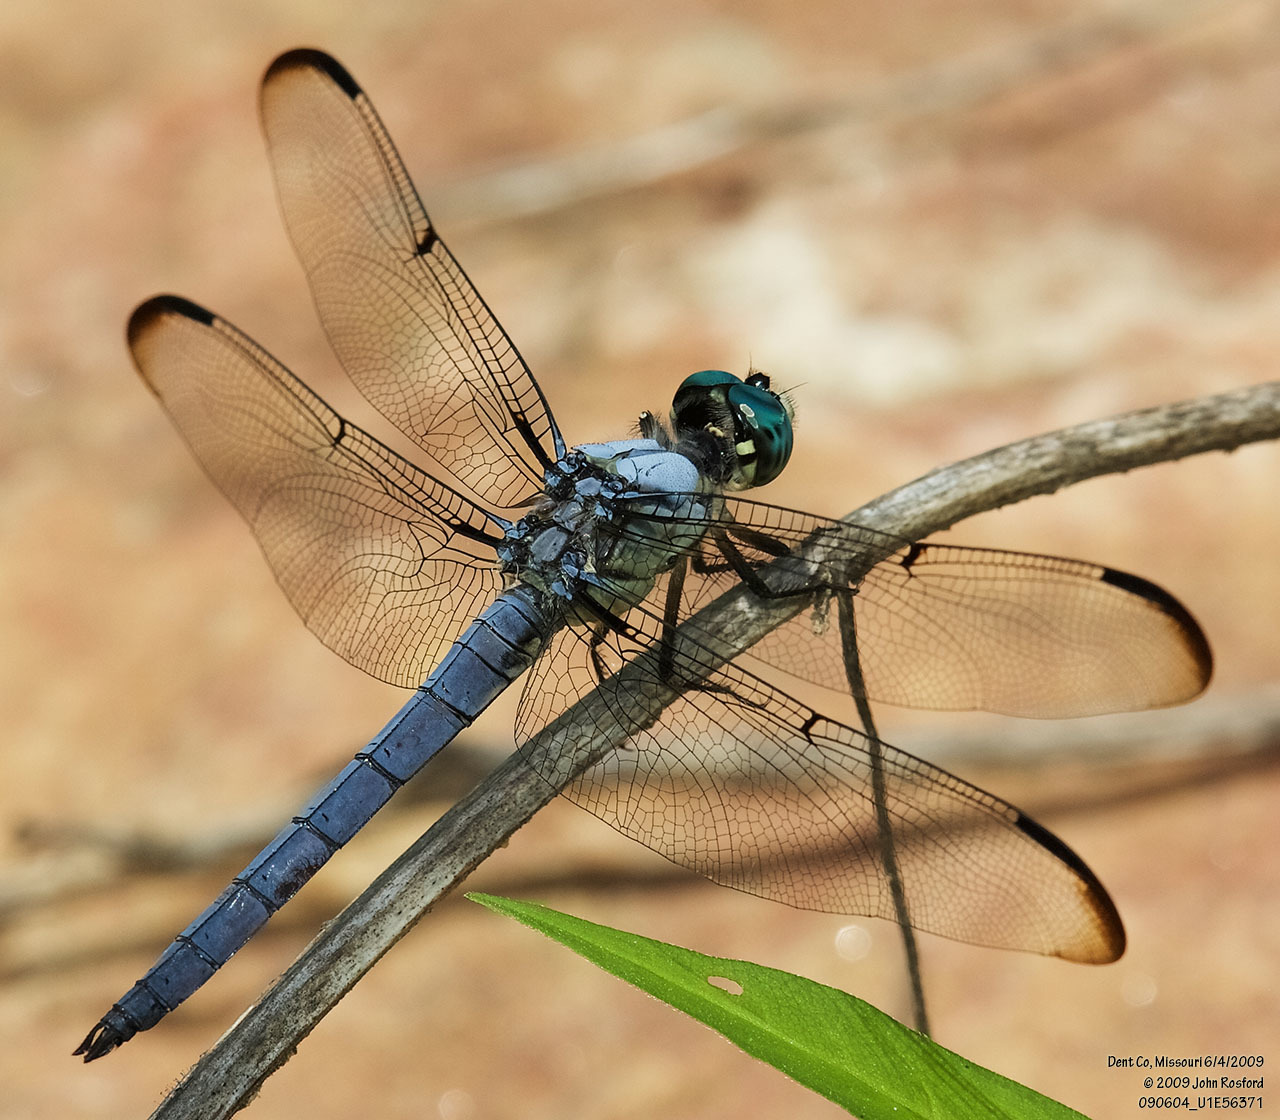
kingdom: Animalia
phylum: Arthropoda
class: Insecta
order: Odonata
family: Libellulidae
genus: Libellula
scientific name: Libellula vibrans
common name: Great blue skimmer
